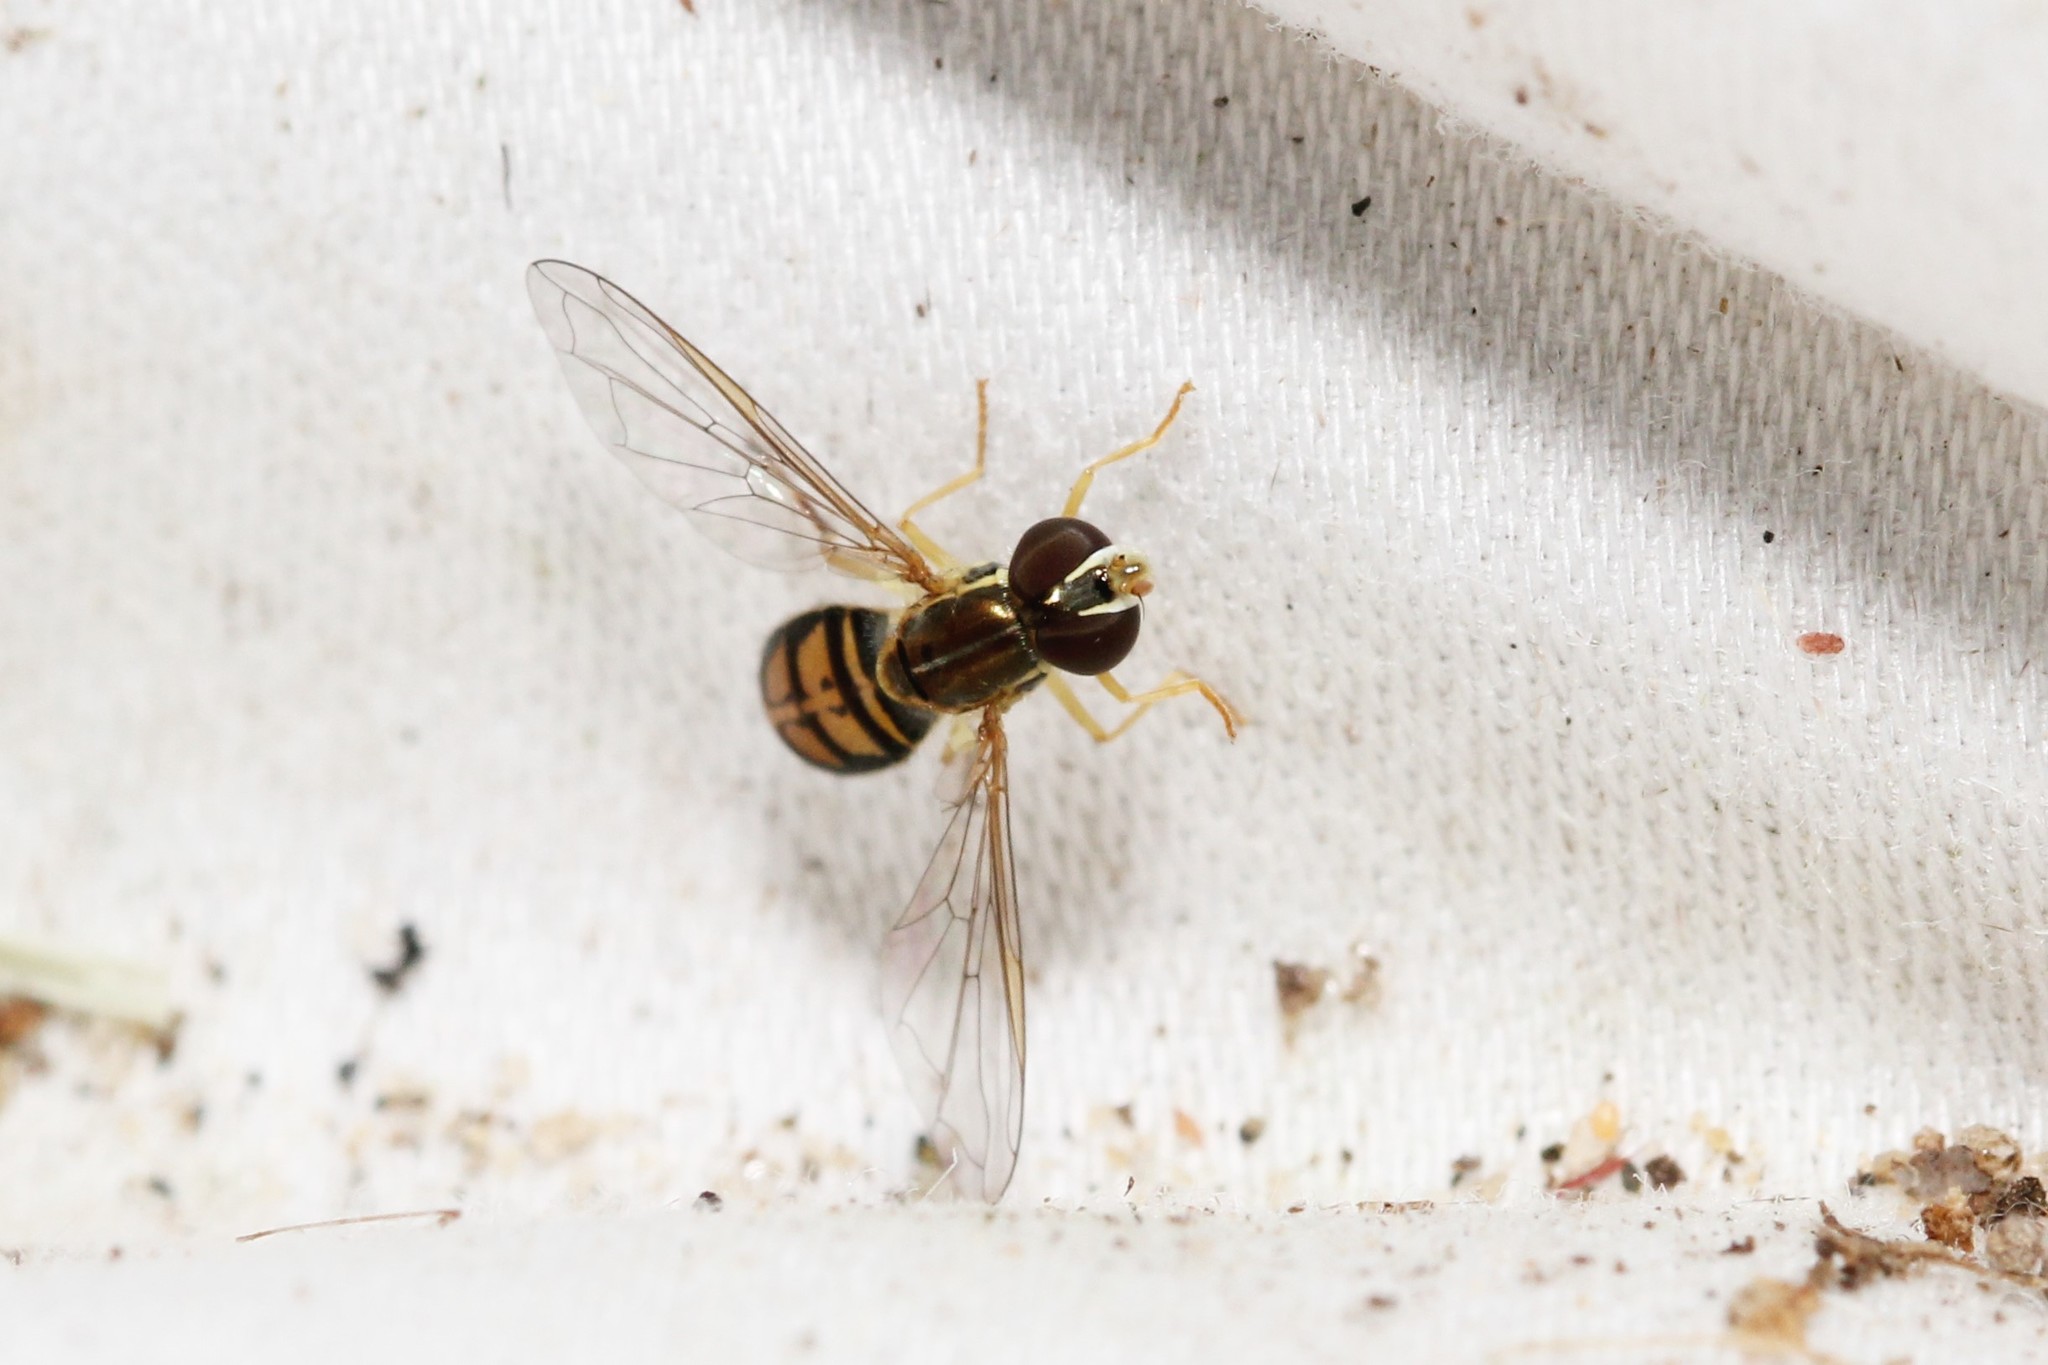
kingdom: Animalia
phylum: Arthropoda
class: Insecta
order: Diptera
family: Syrphidae
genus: Toxomerus
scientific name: Toxomerus marginatus
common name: Syrphid fly
